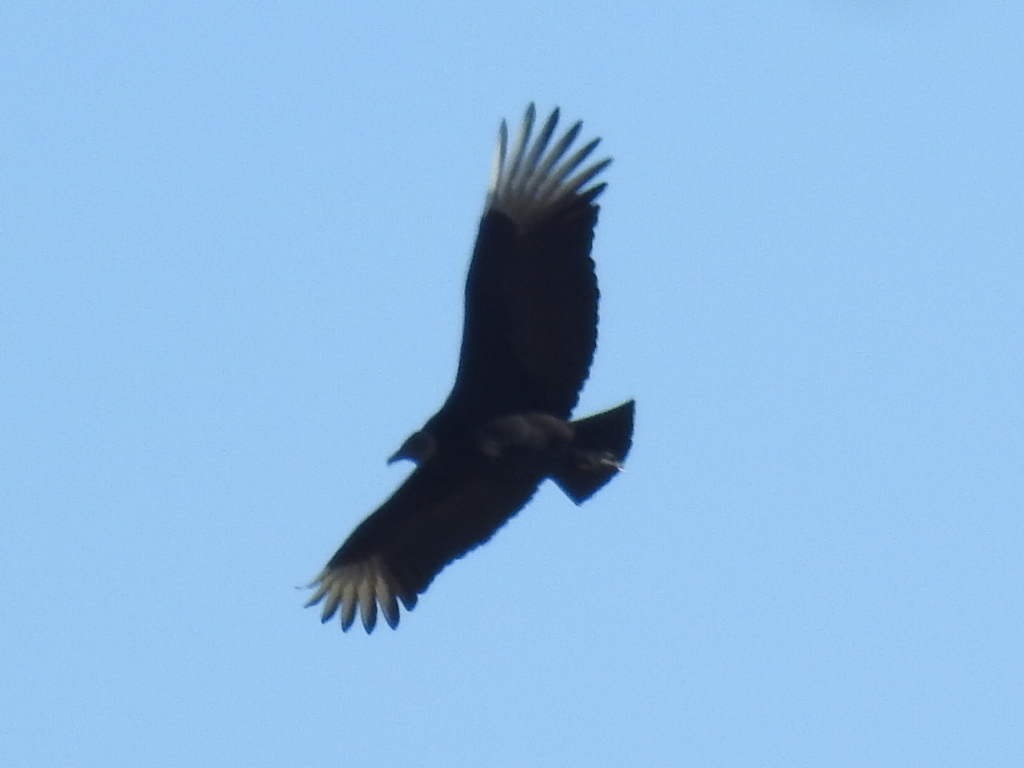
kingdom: Animalia
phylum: Chordata
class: Aves
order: Accipitriformes
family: Cathartidae
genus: Coragyps
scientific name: Coragyps atratus
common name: Black vulture
